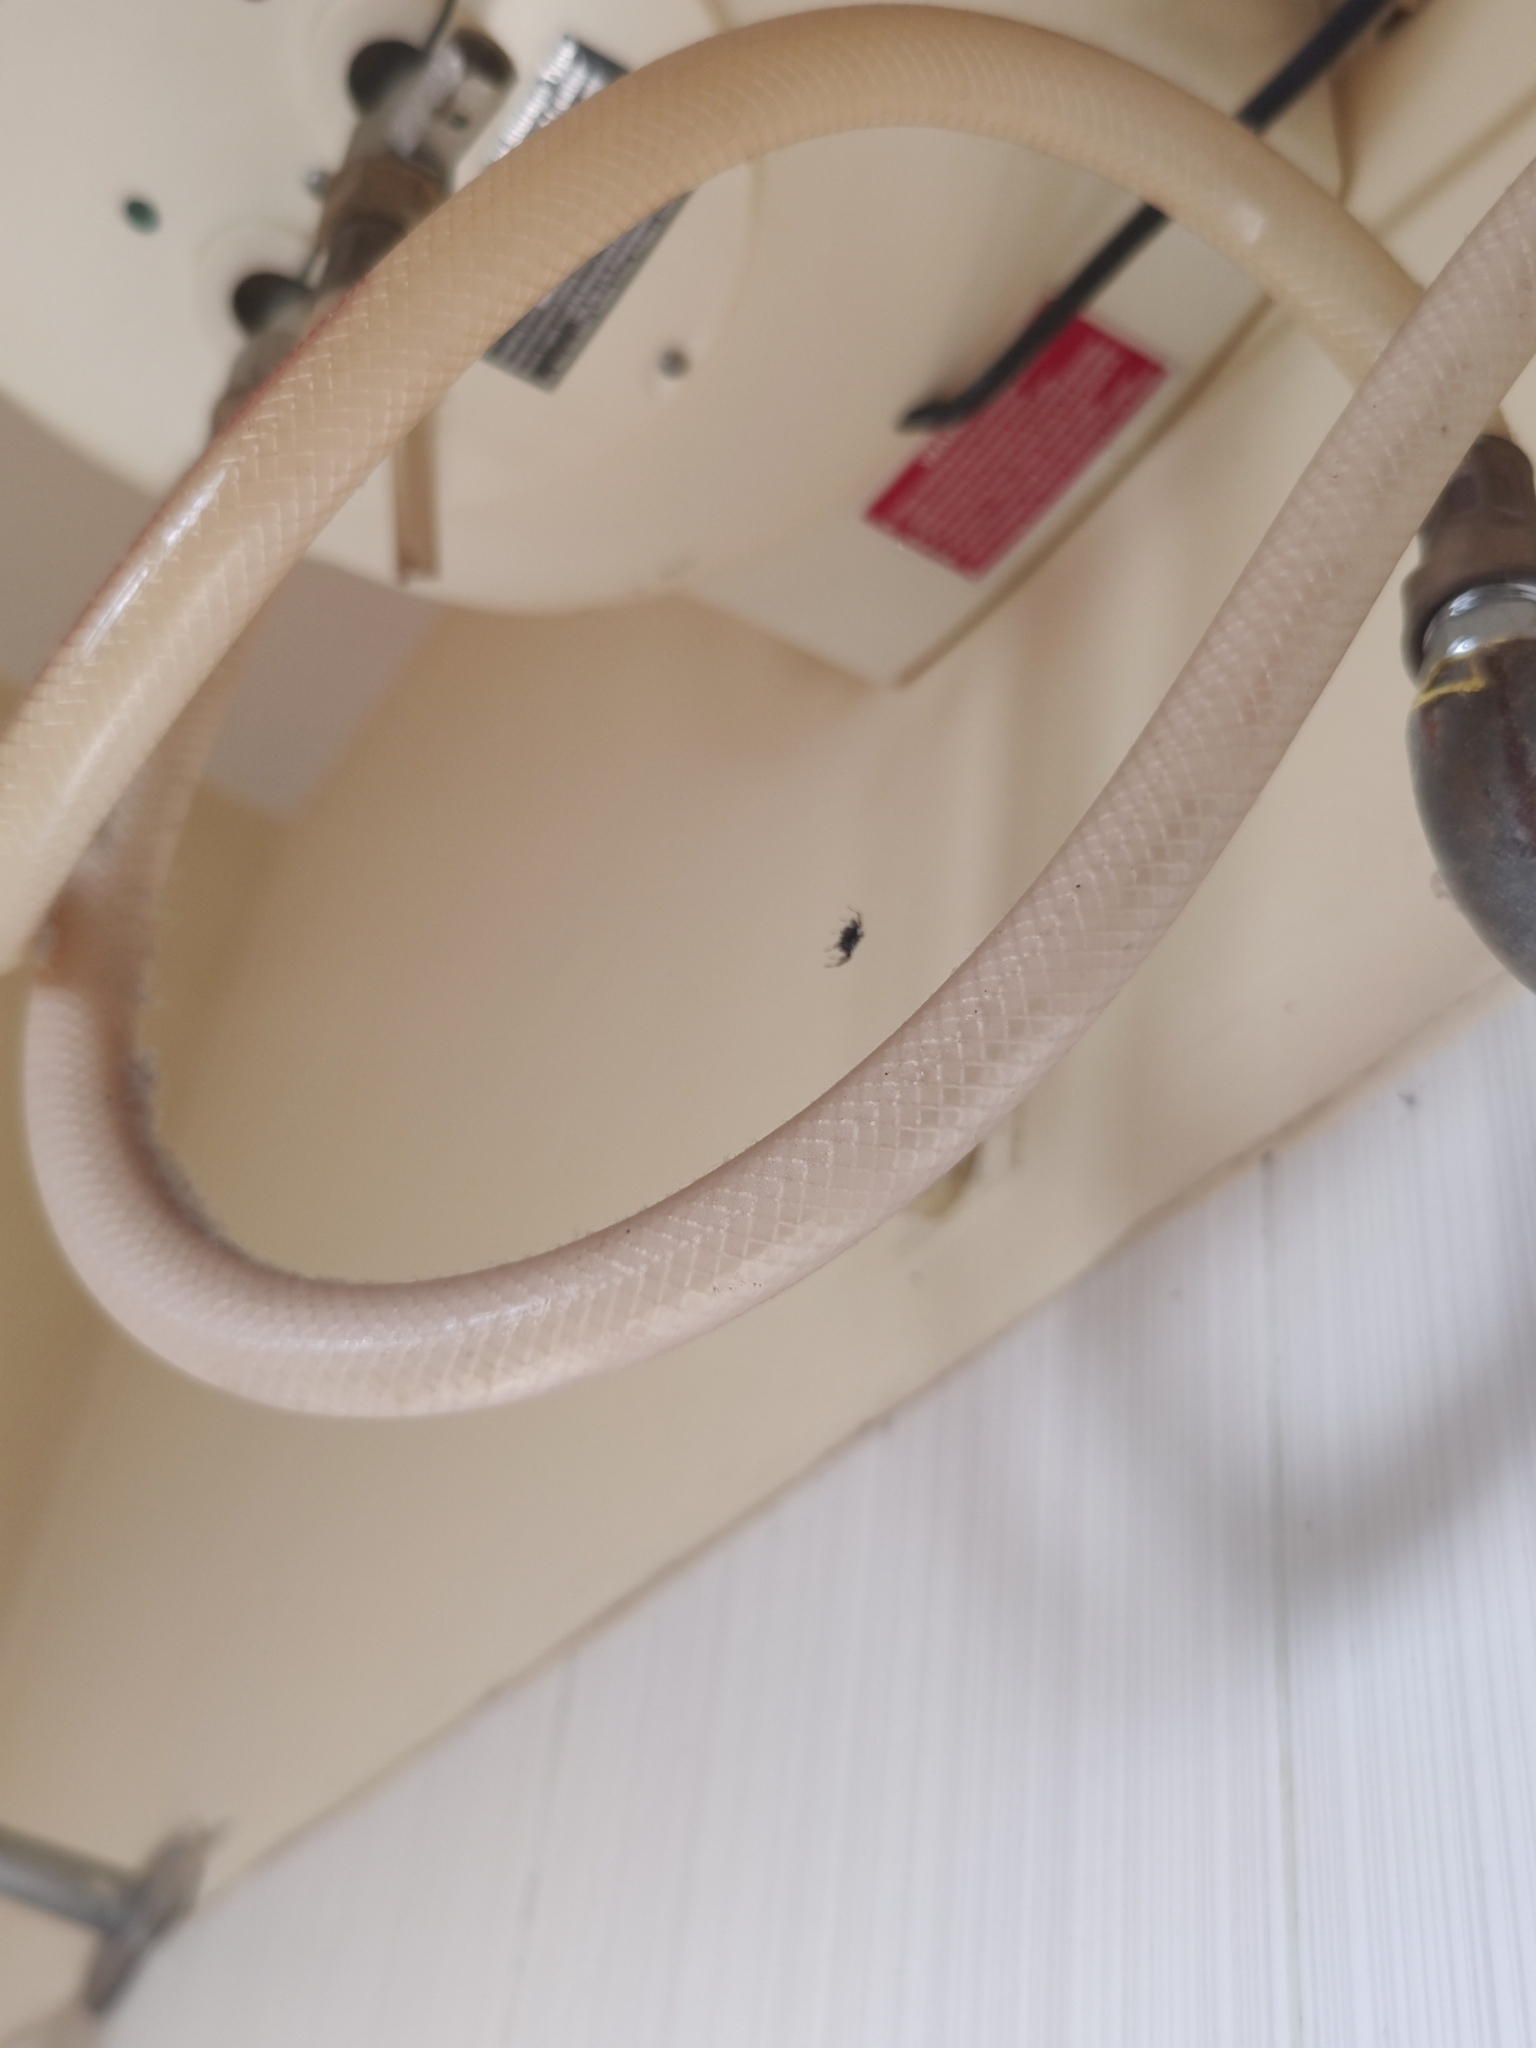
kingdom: Animalia
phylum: Arthropoda
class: Arachnida
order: Araneae
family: Salticidae
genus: Phintella
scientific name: Phintella vittata
